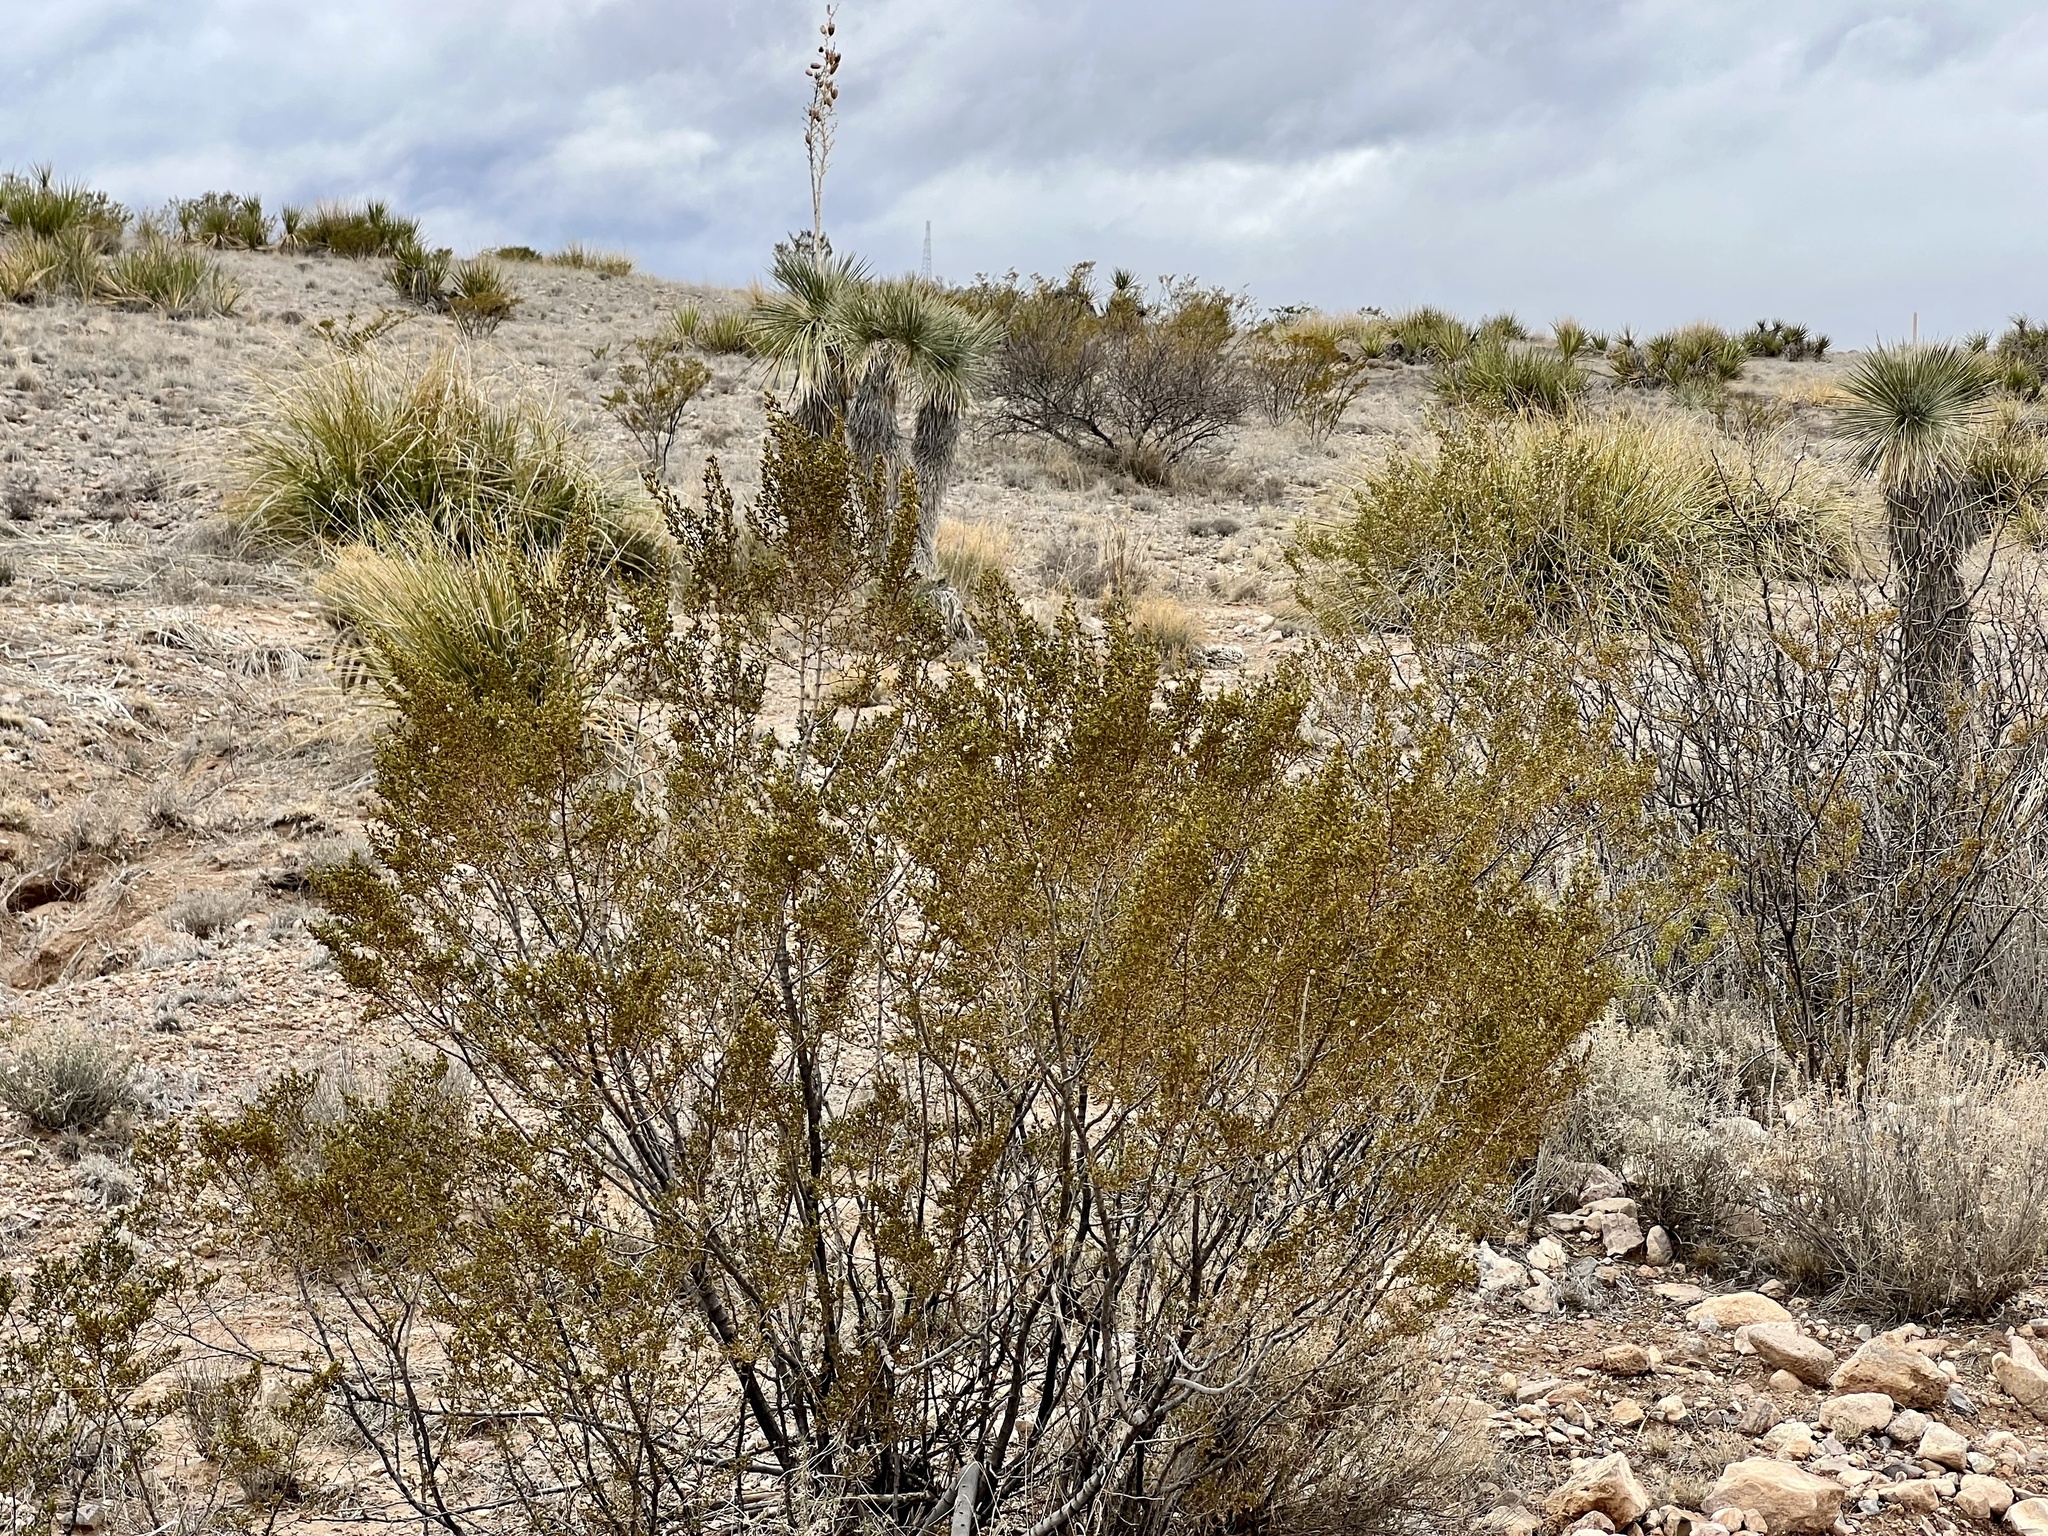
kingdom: Plantae
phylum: Tracheophyta
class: Magnoliopsida
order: Zygophyllales
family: Zygophyllaceae
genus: Larrea
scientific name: Larrea tridentata
